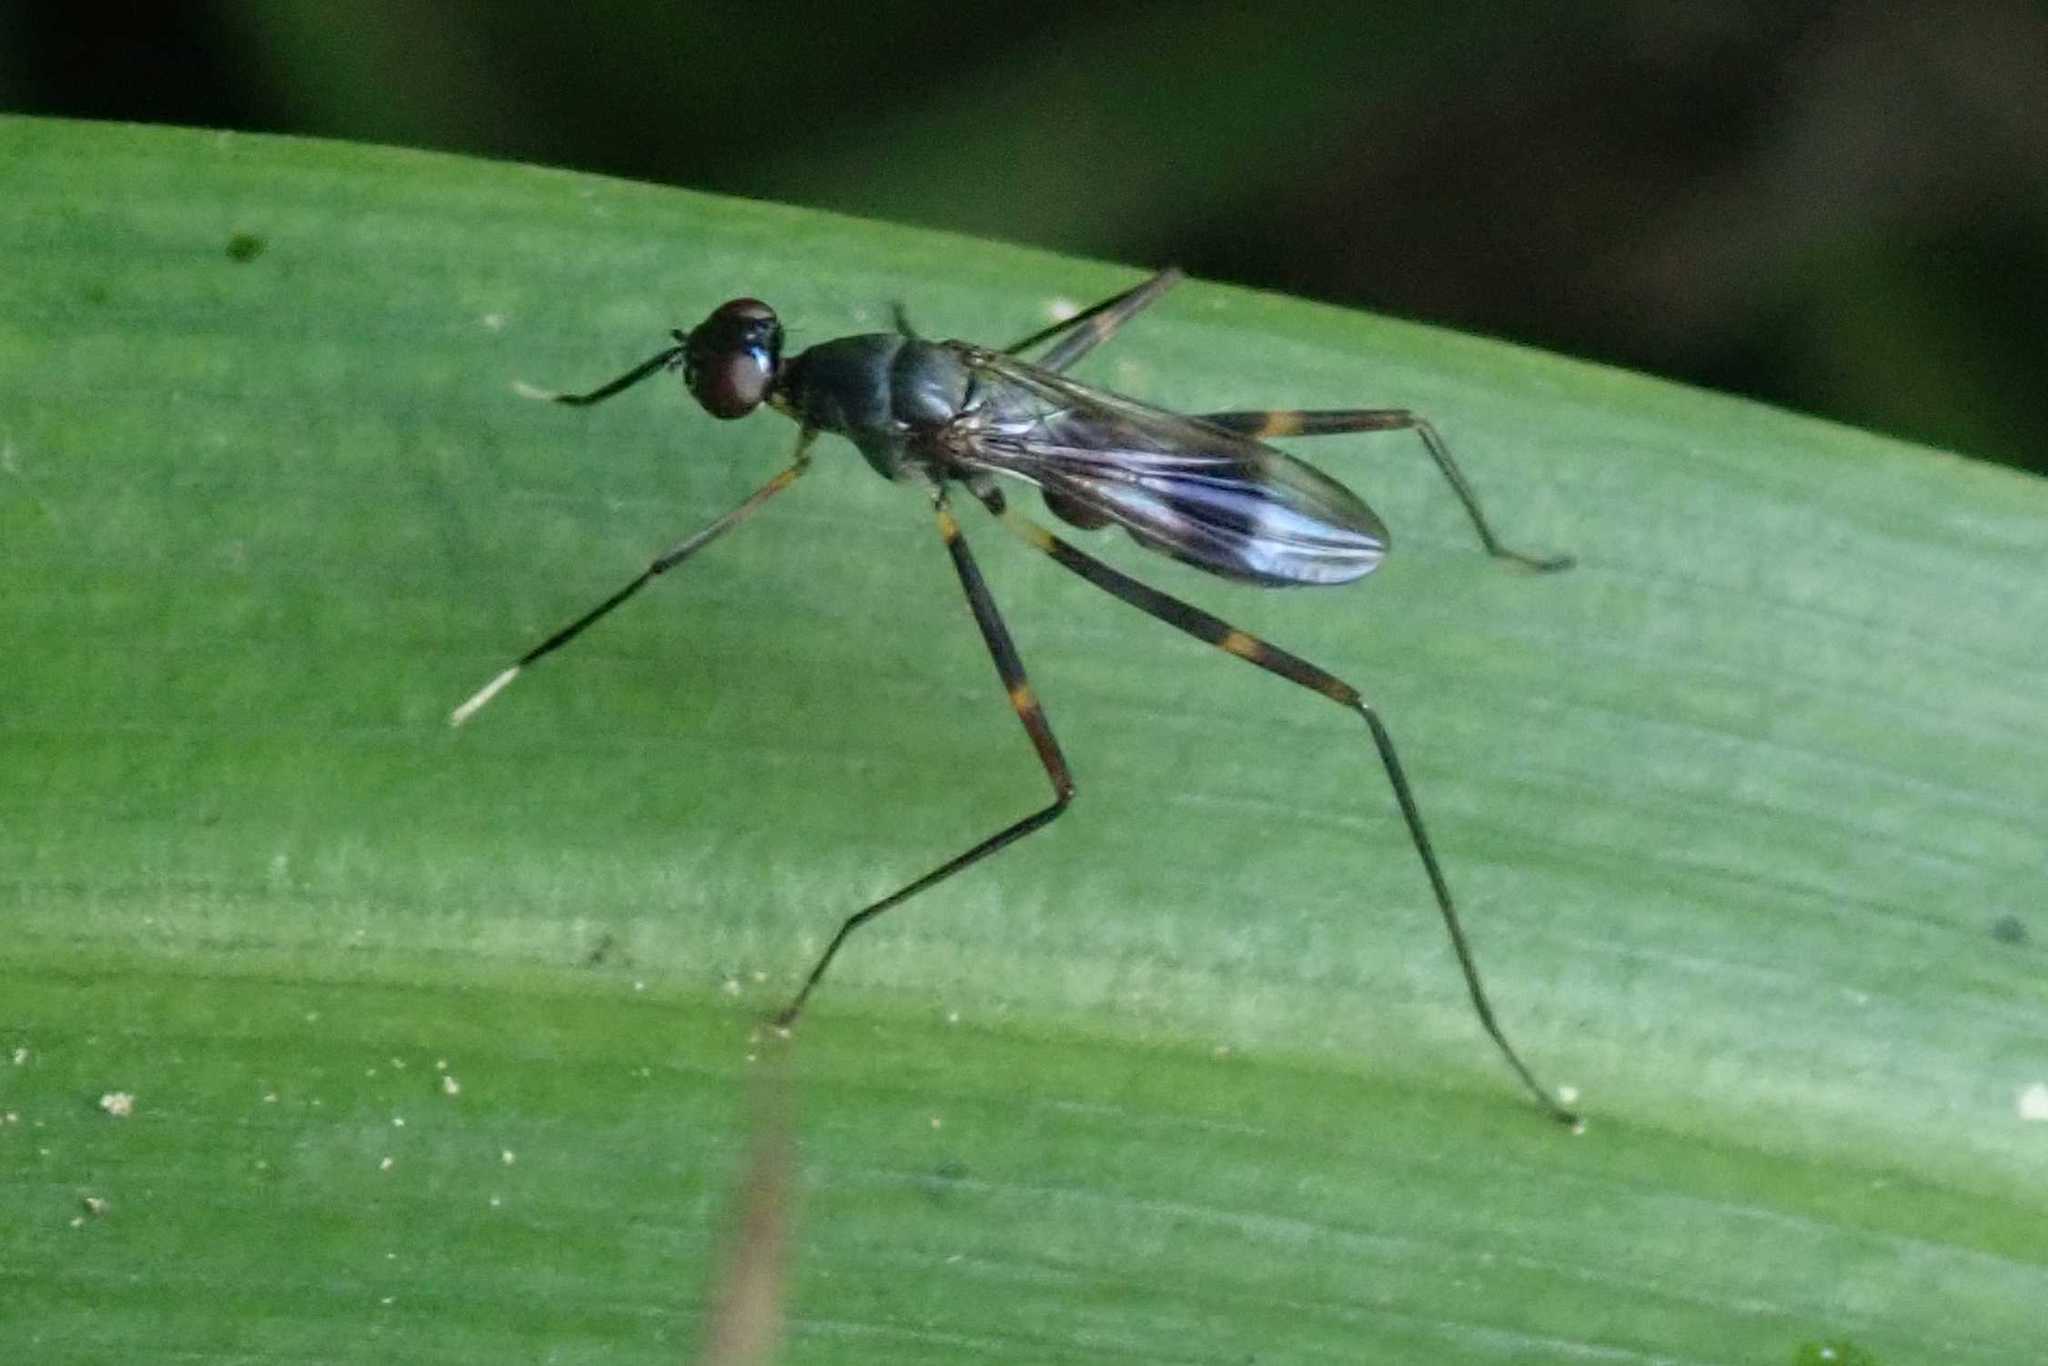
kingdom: Animalia
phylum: Arthropoda
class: Insecta
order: Diptera
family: Micropezidae
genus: Hybobata
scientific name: Hybobata
